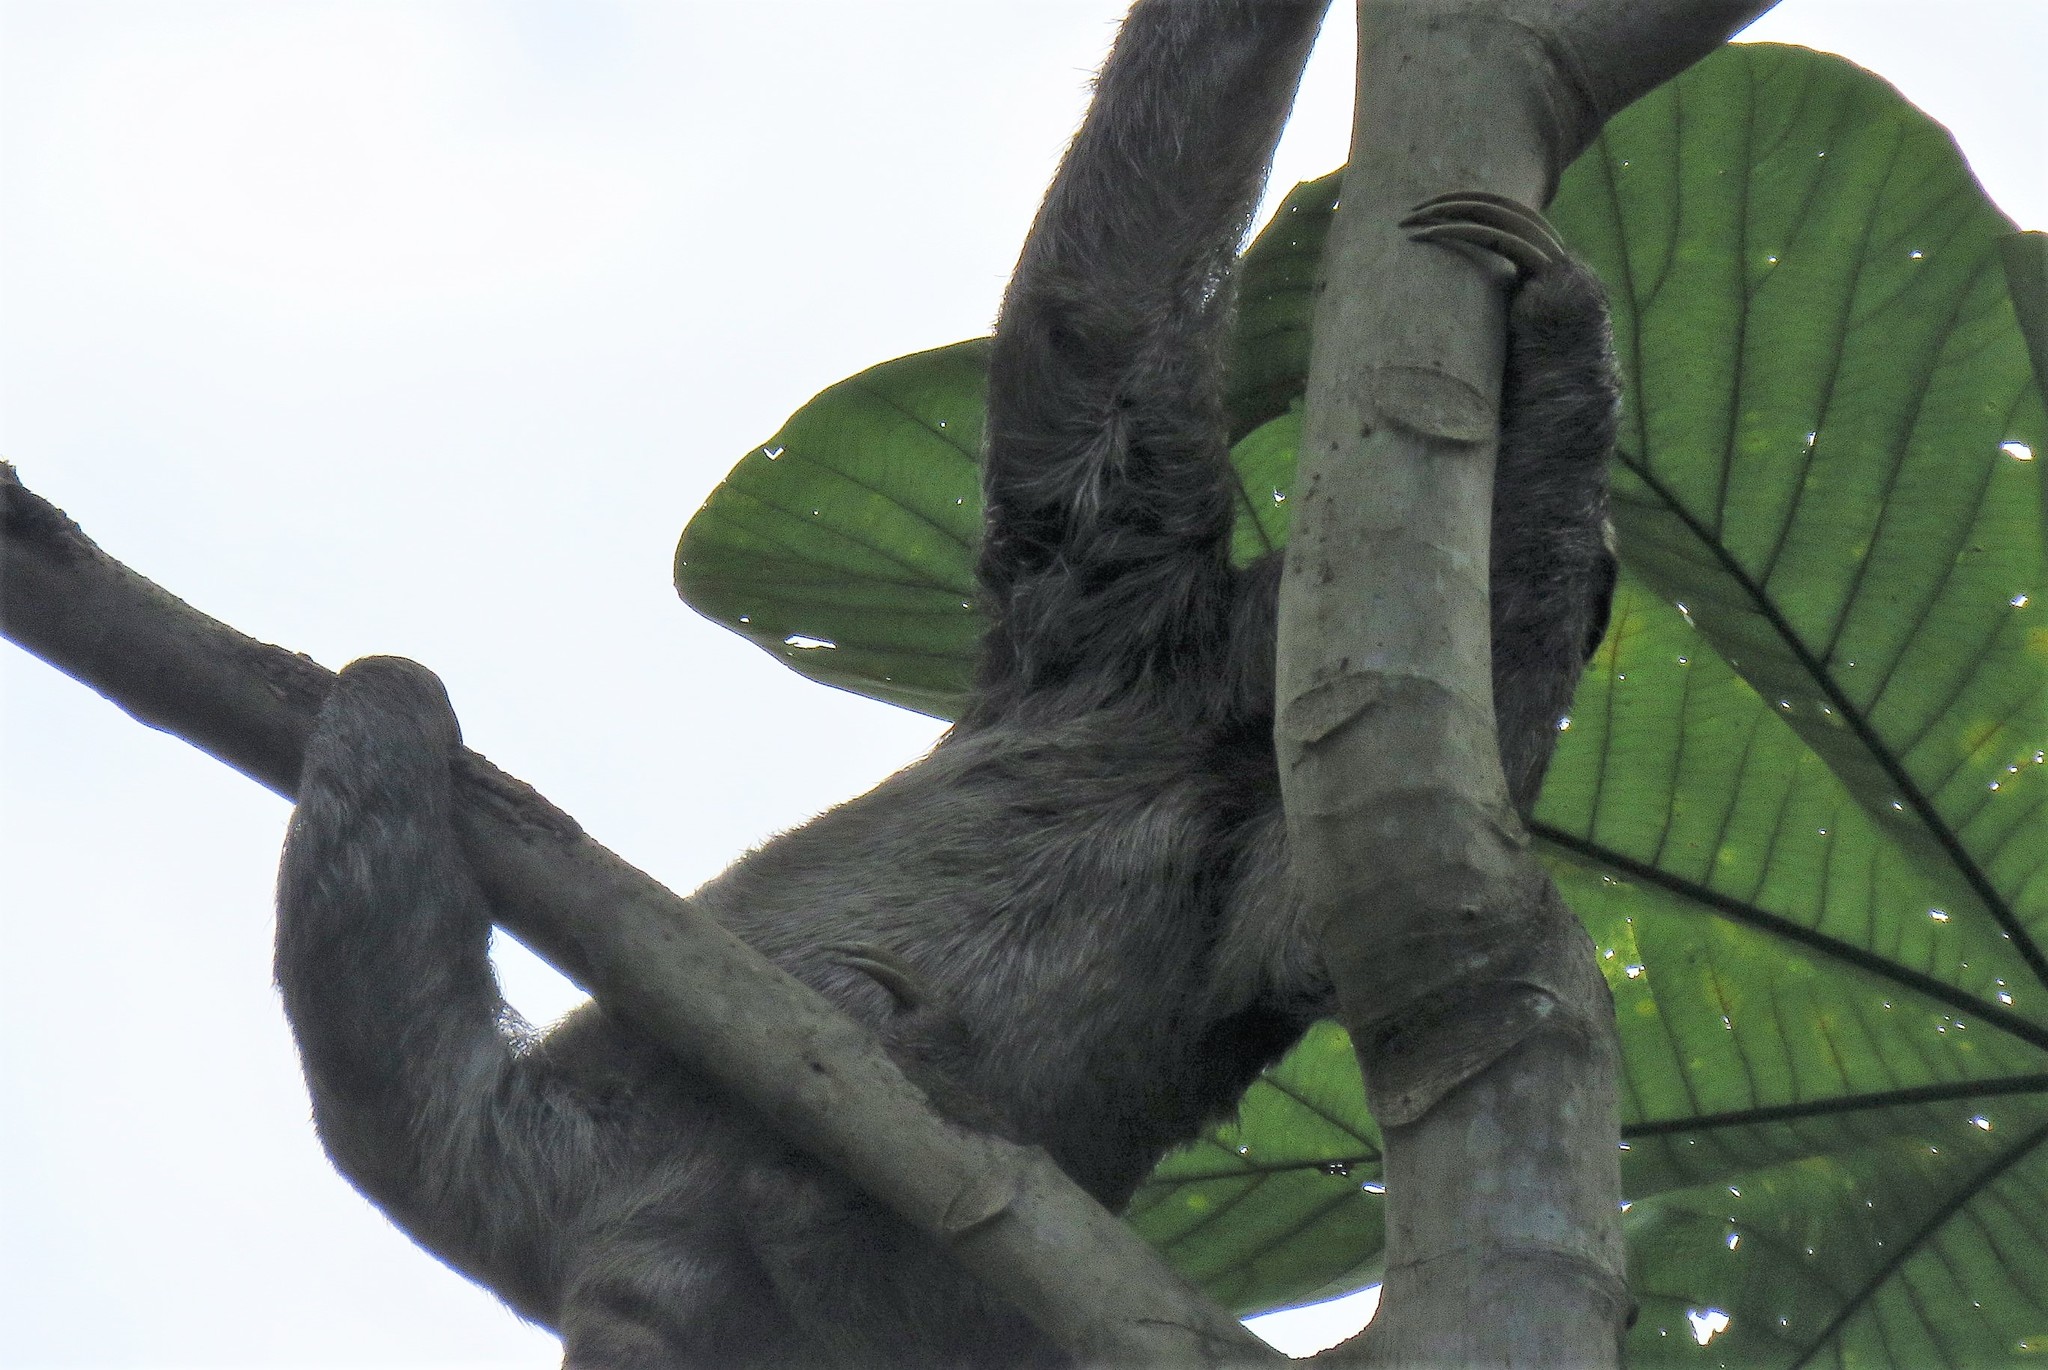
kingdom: Animalia
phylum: Chordata
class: Mammalia
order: Pilosa
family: Bradypodidae
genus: Bradypus
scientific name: Bradypus variegatus
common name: Brown-throated three-toed sloth
